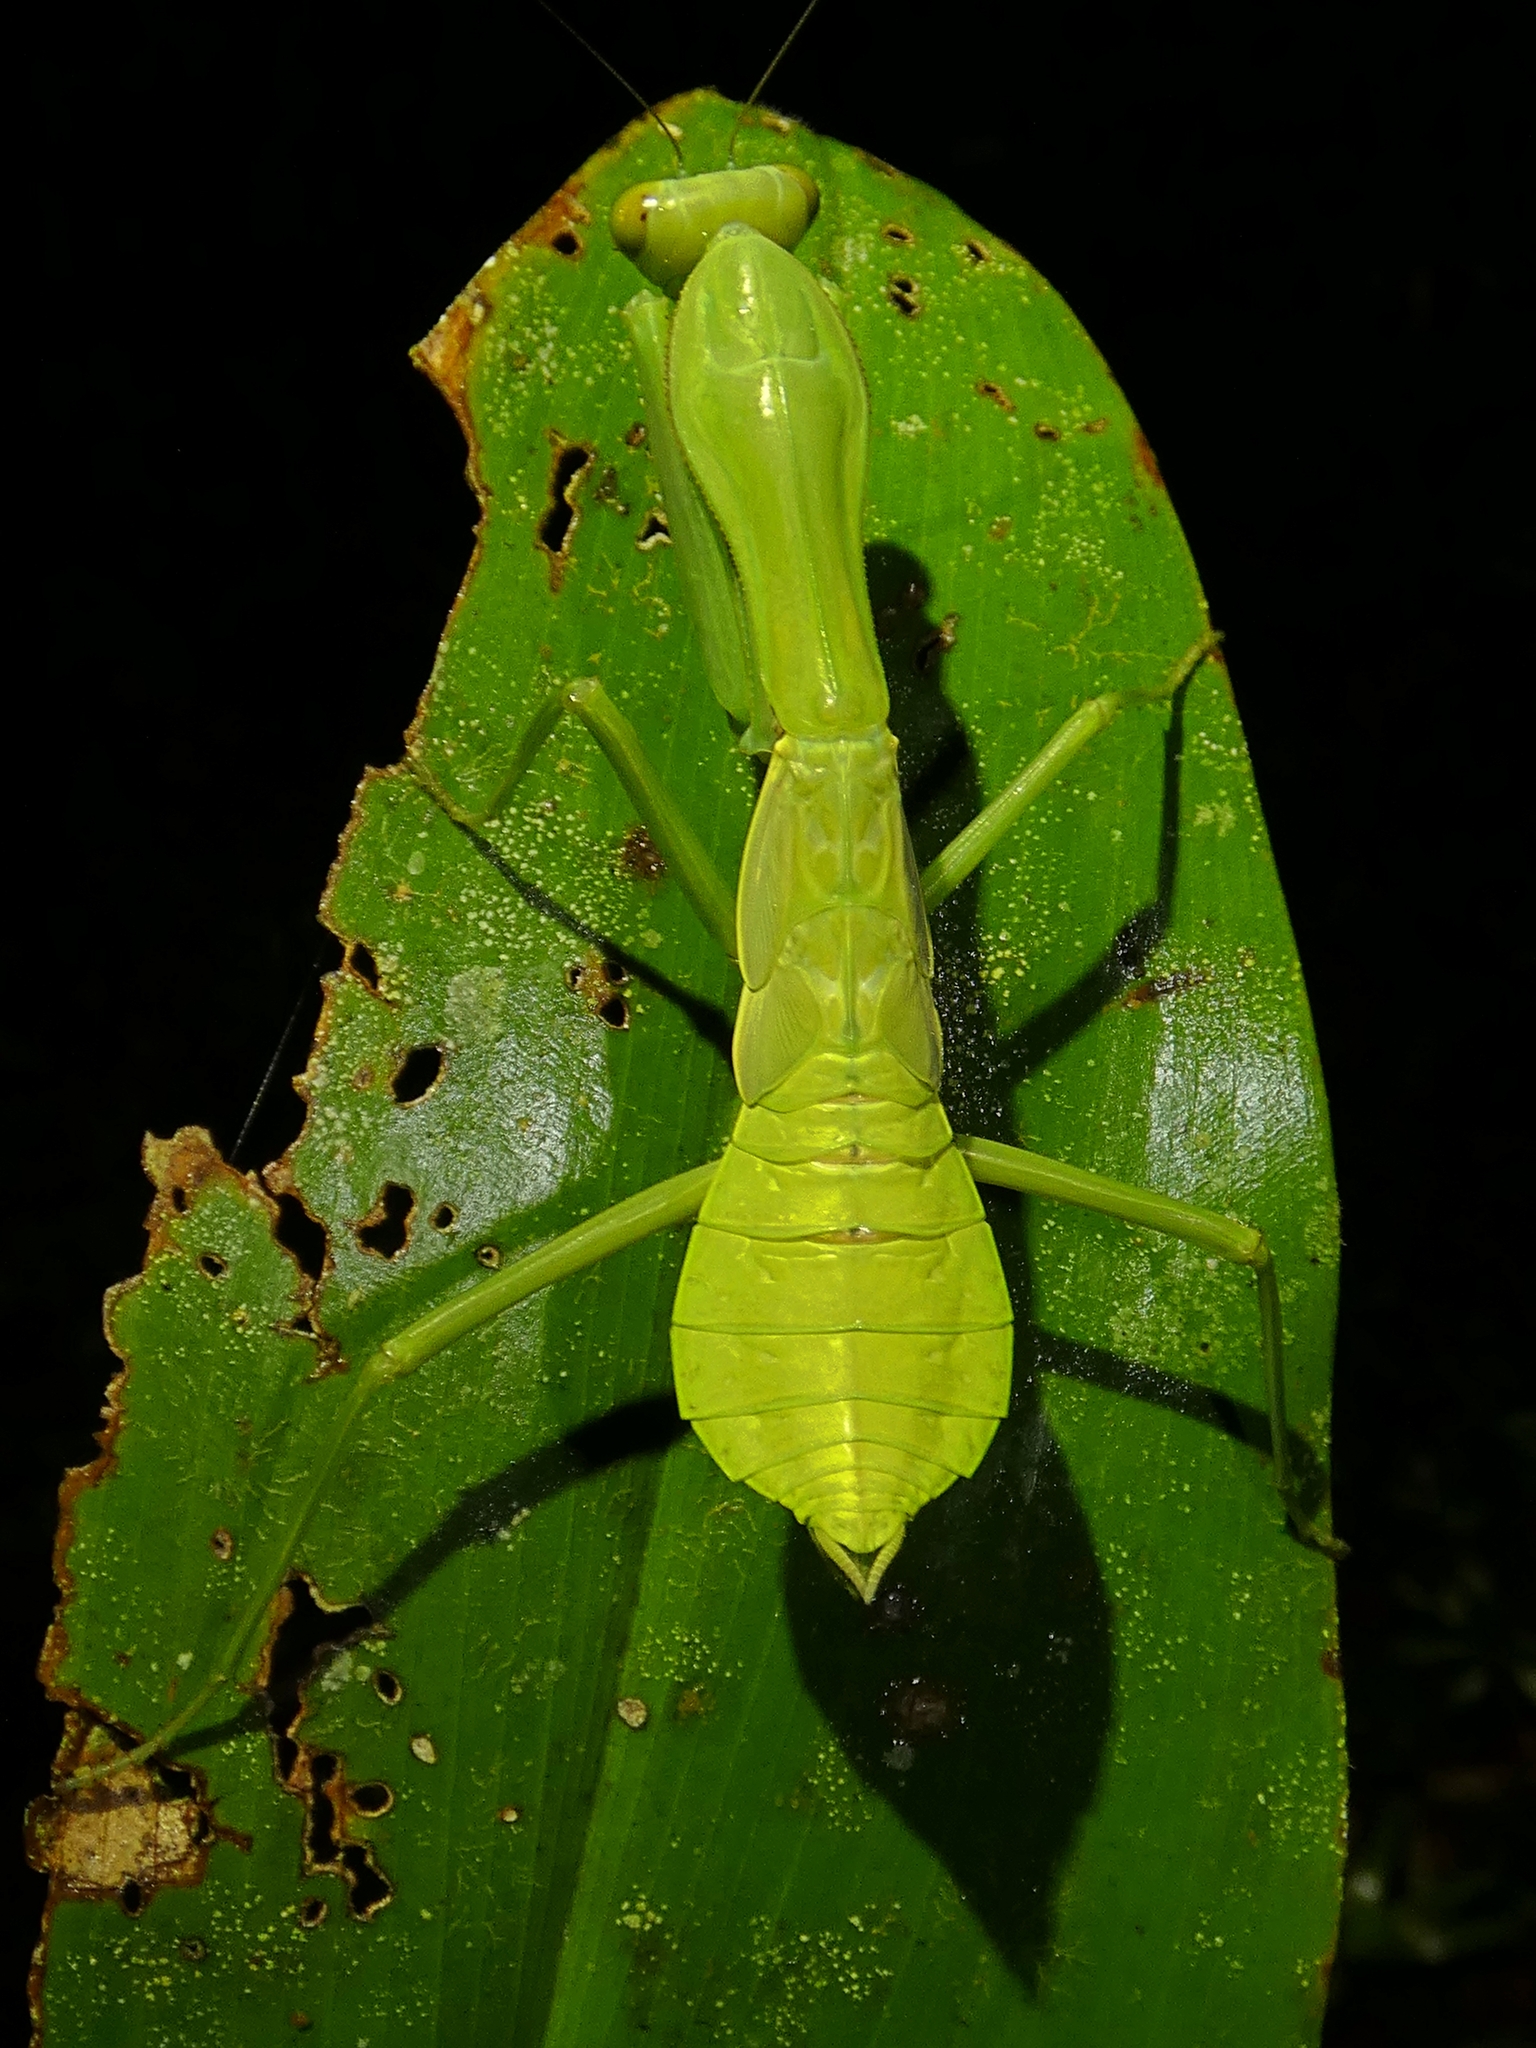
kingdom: Animalia
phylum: Arthropoda
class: Insecta
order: Mantodea
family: Mantidae
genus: Hierodula
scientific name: Hierodula majuscula
